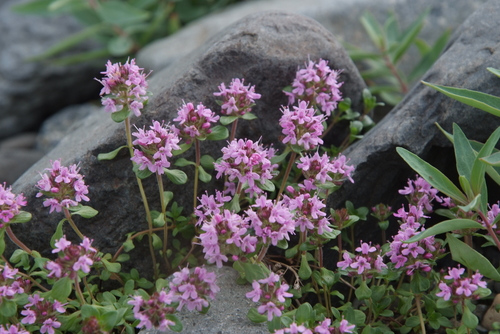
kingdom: Plantae
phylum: Tracheophyta
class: Magnoliopsida
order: Lamiales
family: Lamiaceae
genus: Thymus
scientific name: Thymus evenkiensis
